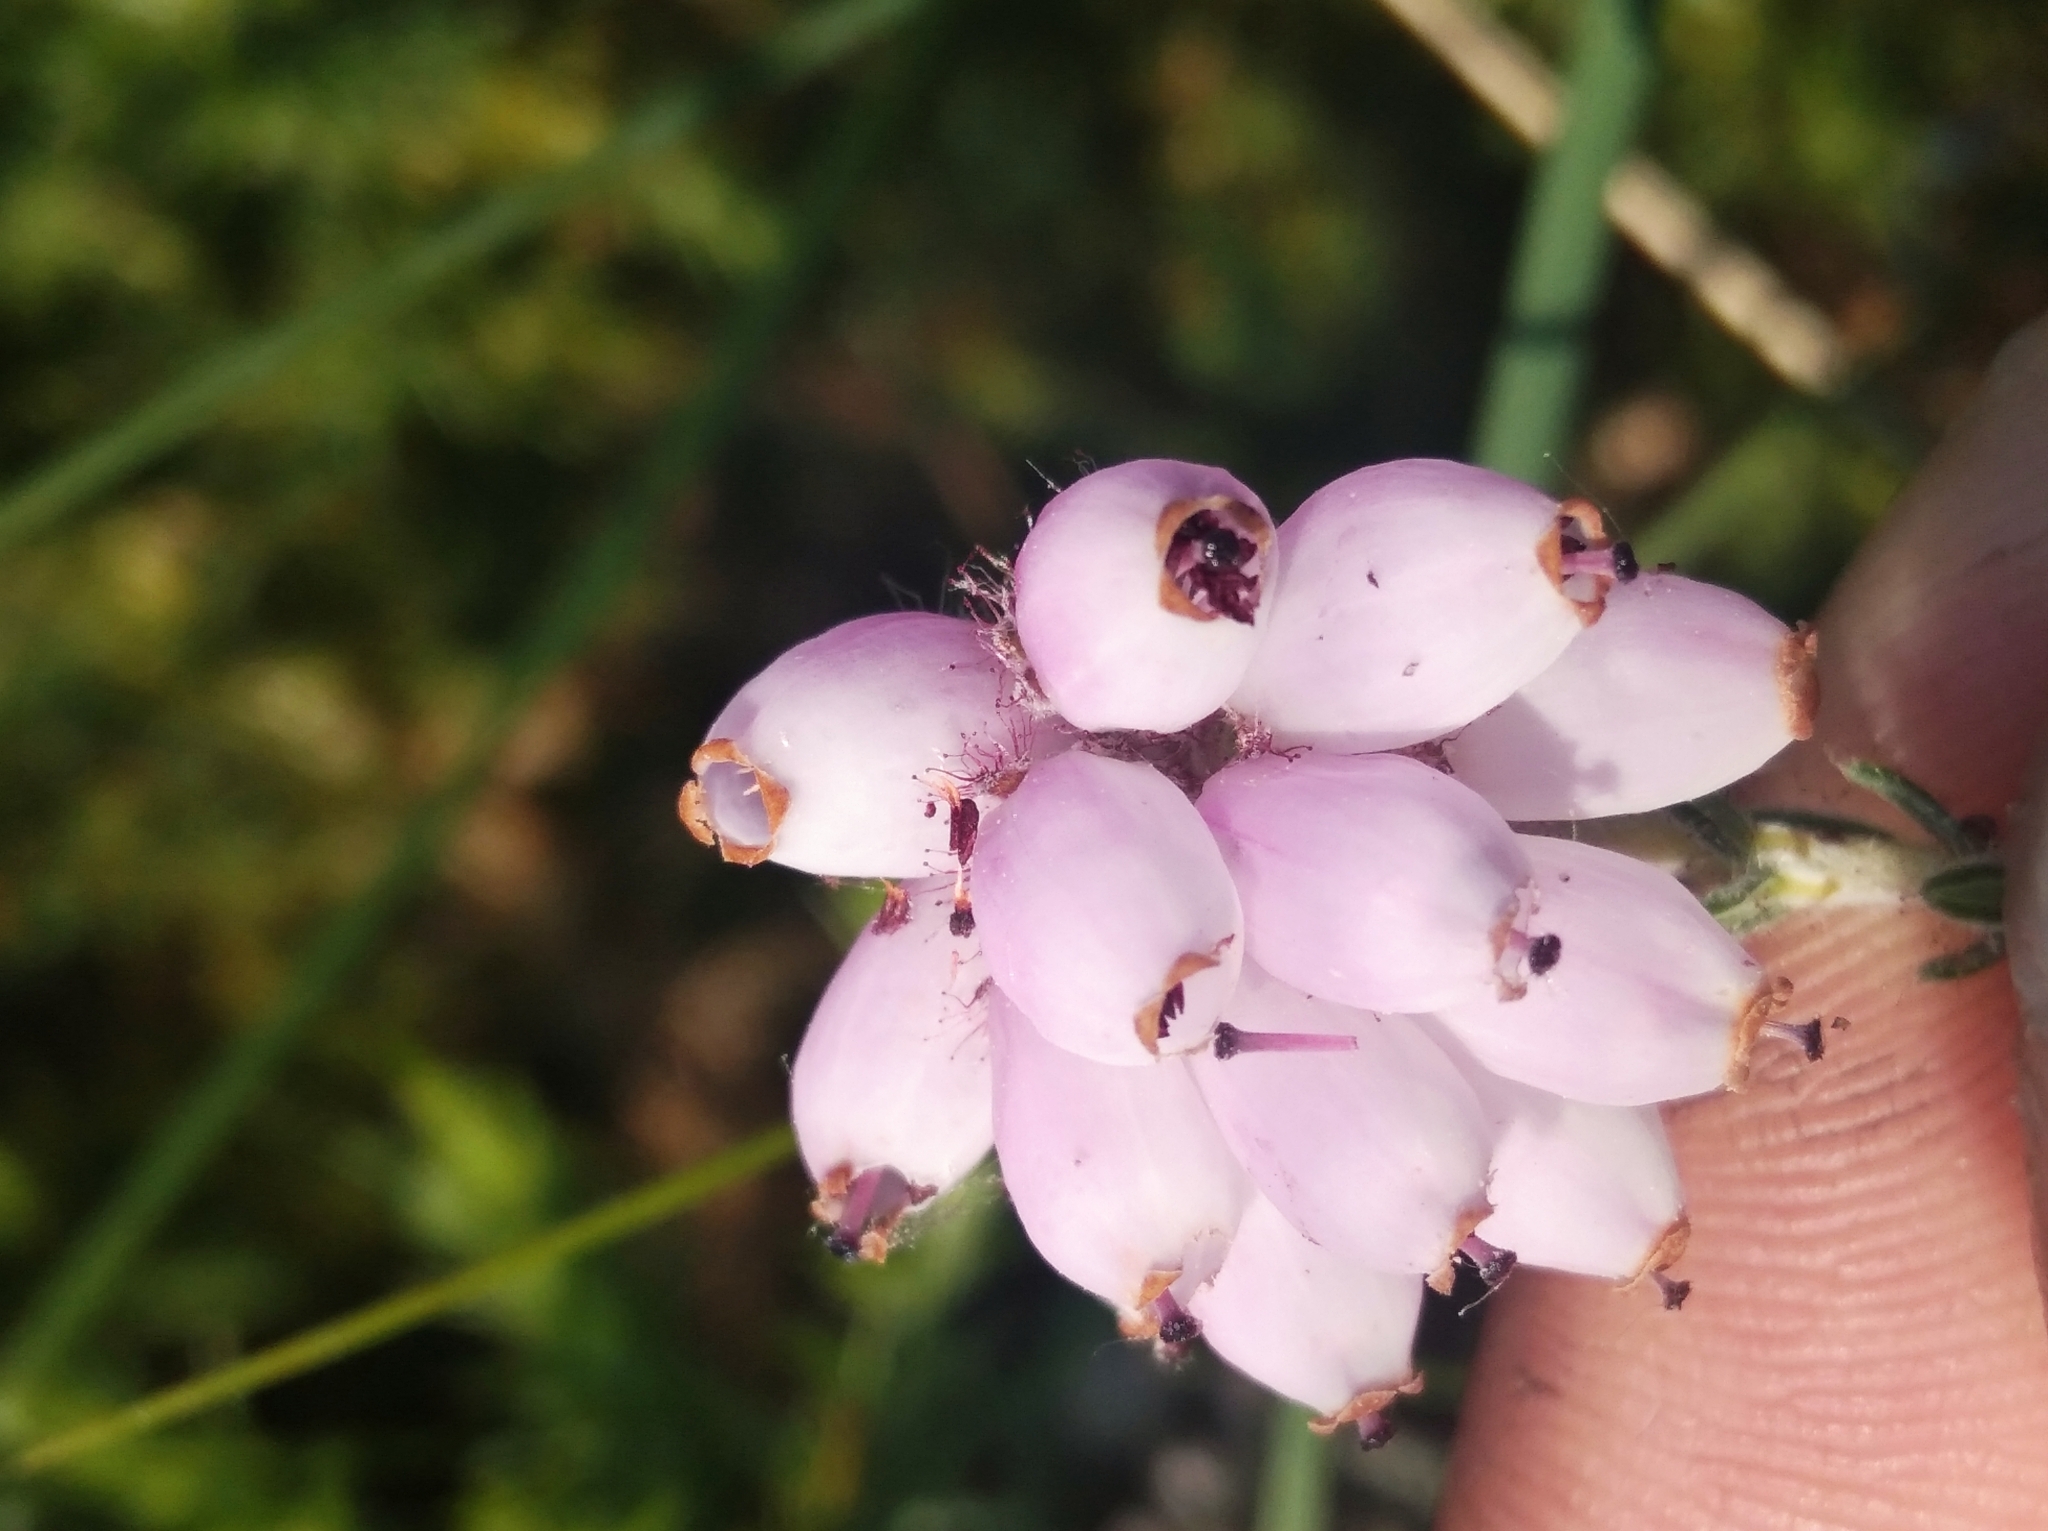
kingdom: Plantae
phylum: Tracheophyta
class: Magnoliopsida
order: Ericales
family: Ericaceae
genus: Erica
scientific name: Erica tetralix
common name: Cross-leaved heath
